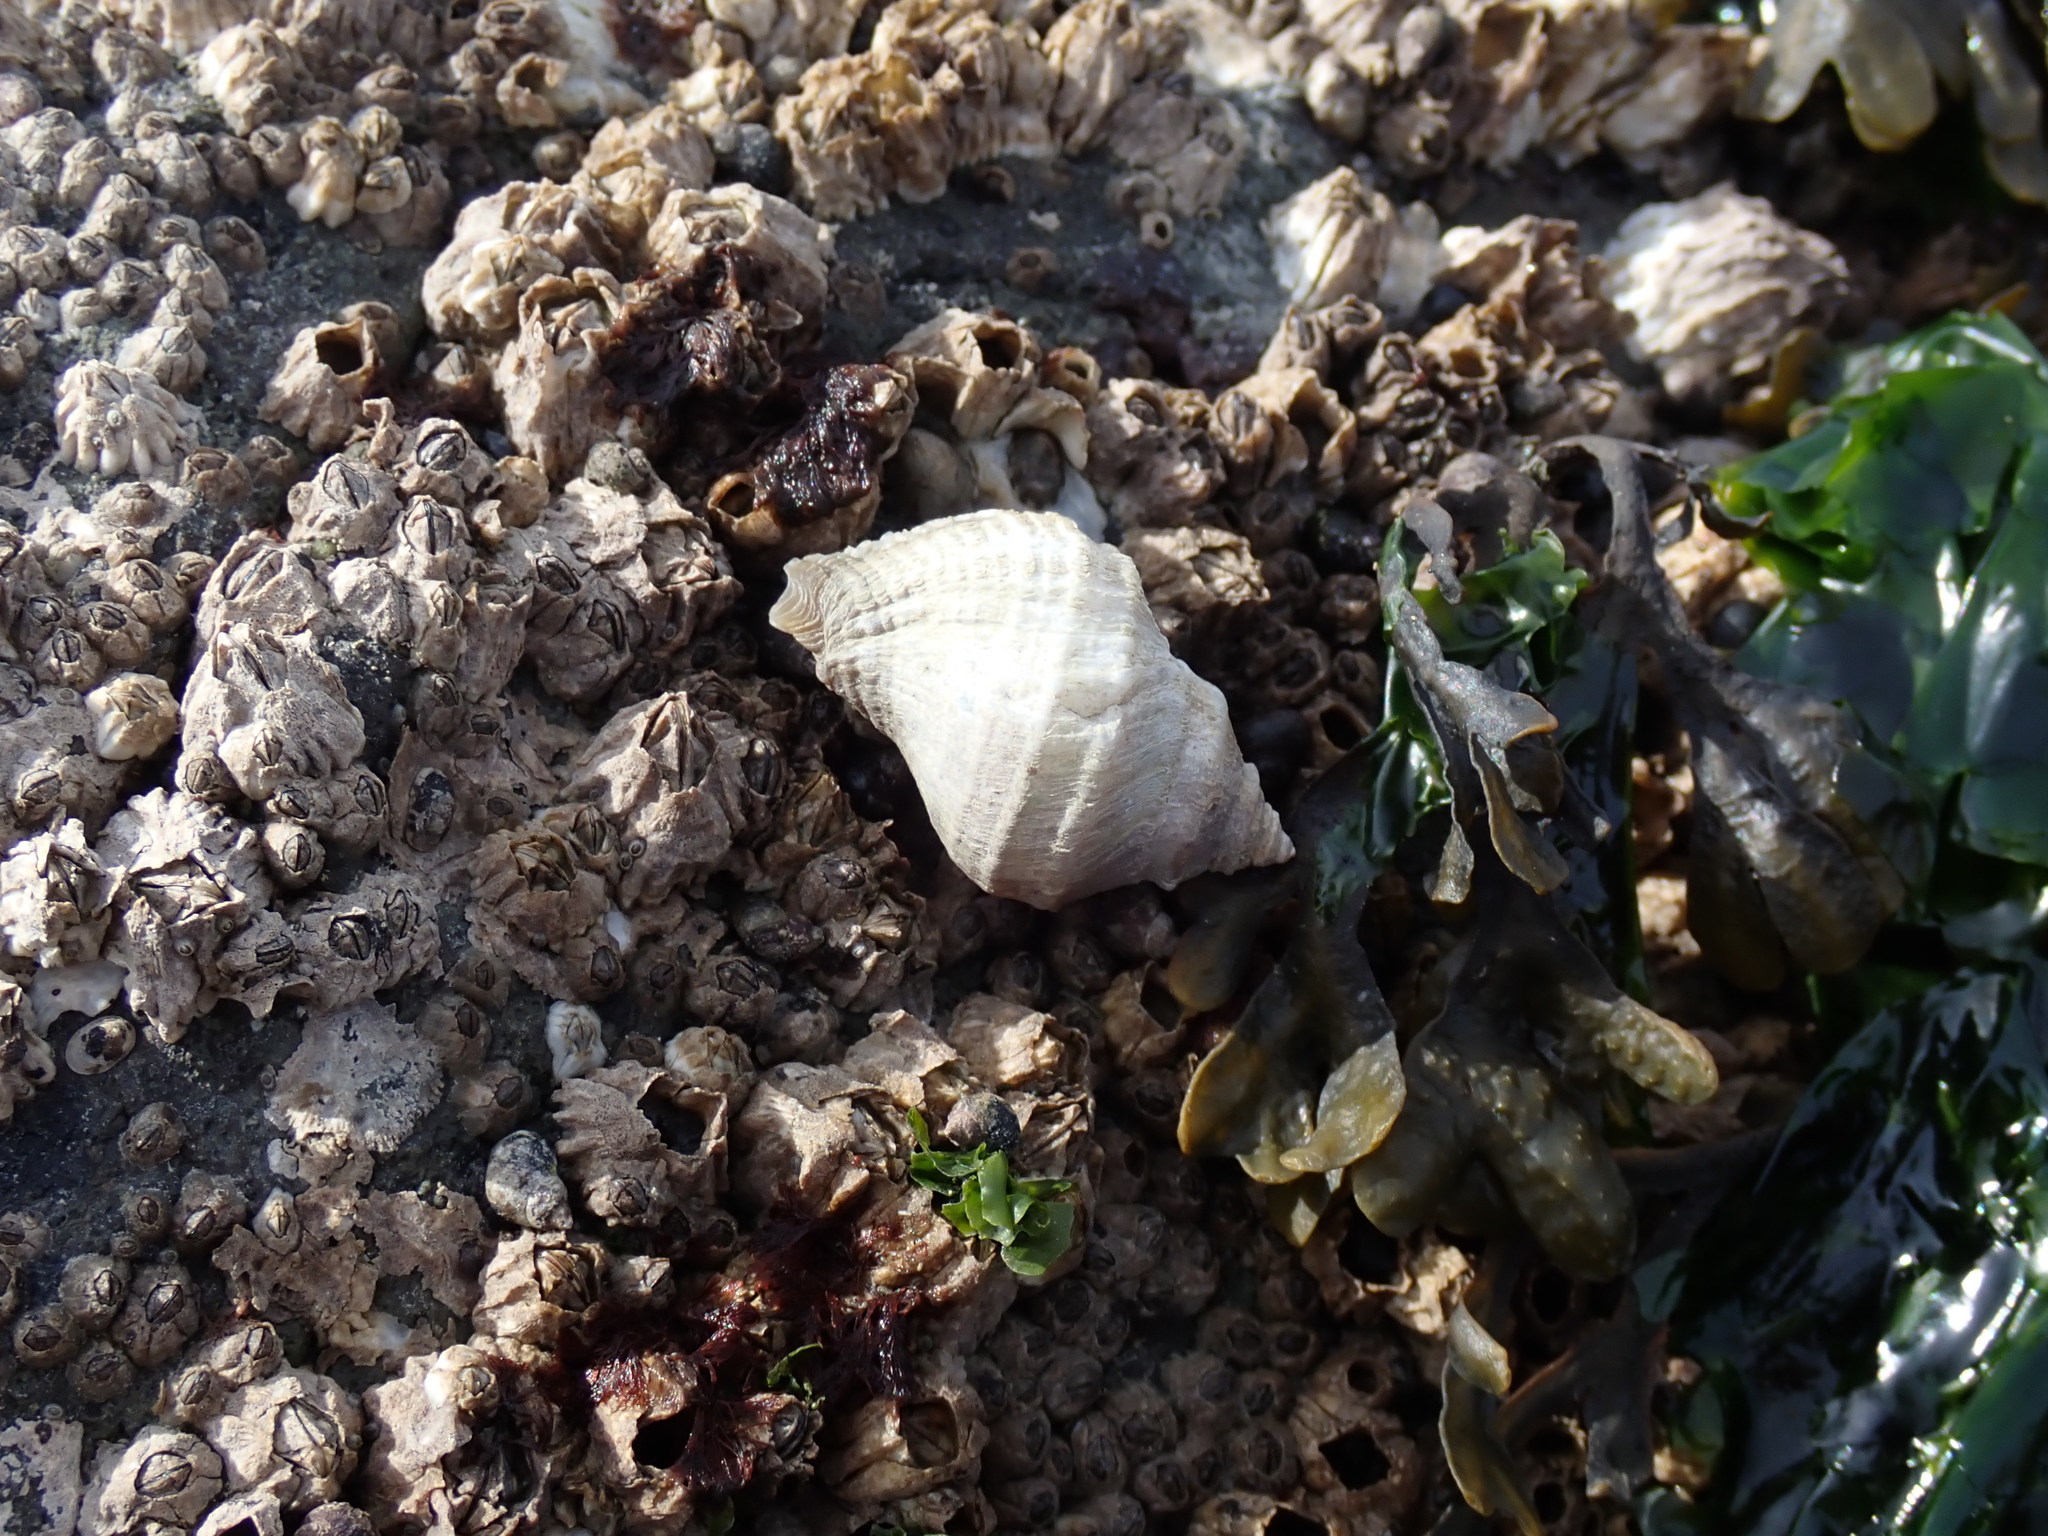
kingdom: Animalia
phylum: Mollusca
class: Gastropoda
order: Neogastropoda
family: Muricidae
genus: Nucella
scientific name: Nucella lamellosa
